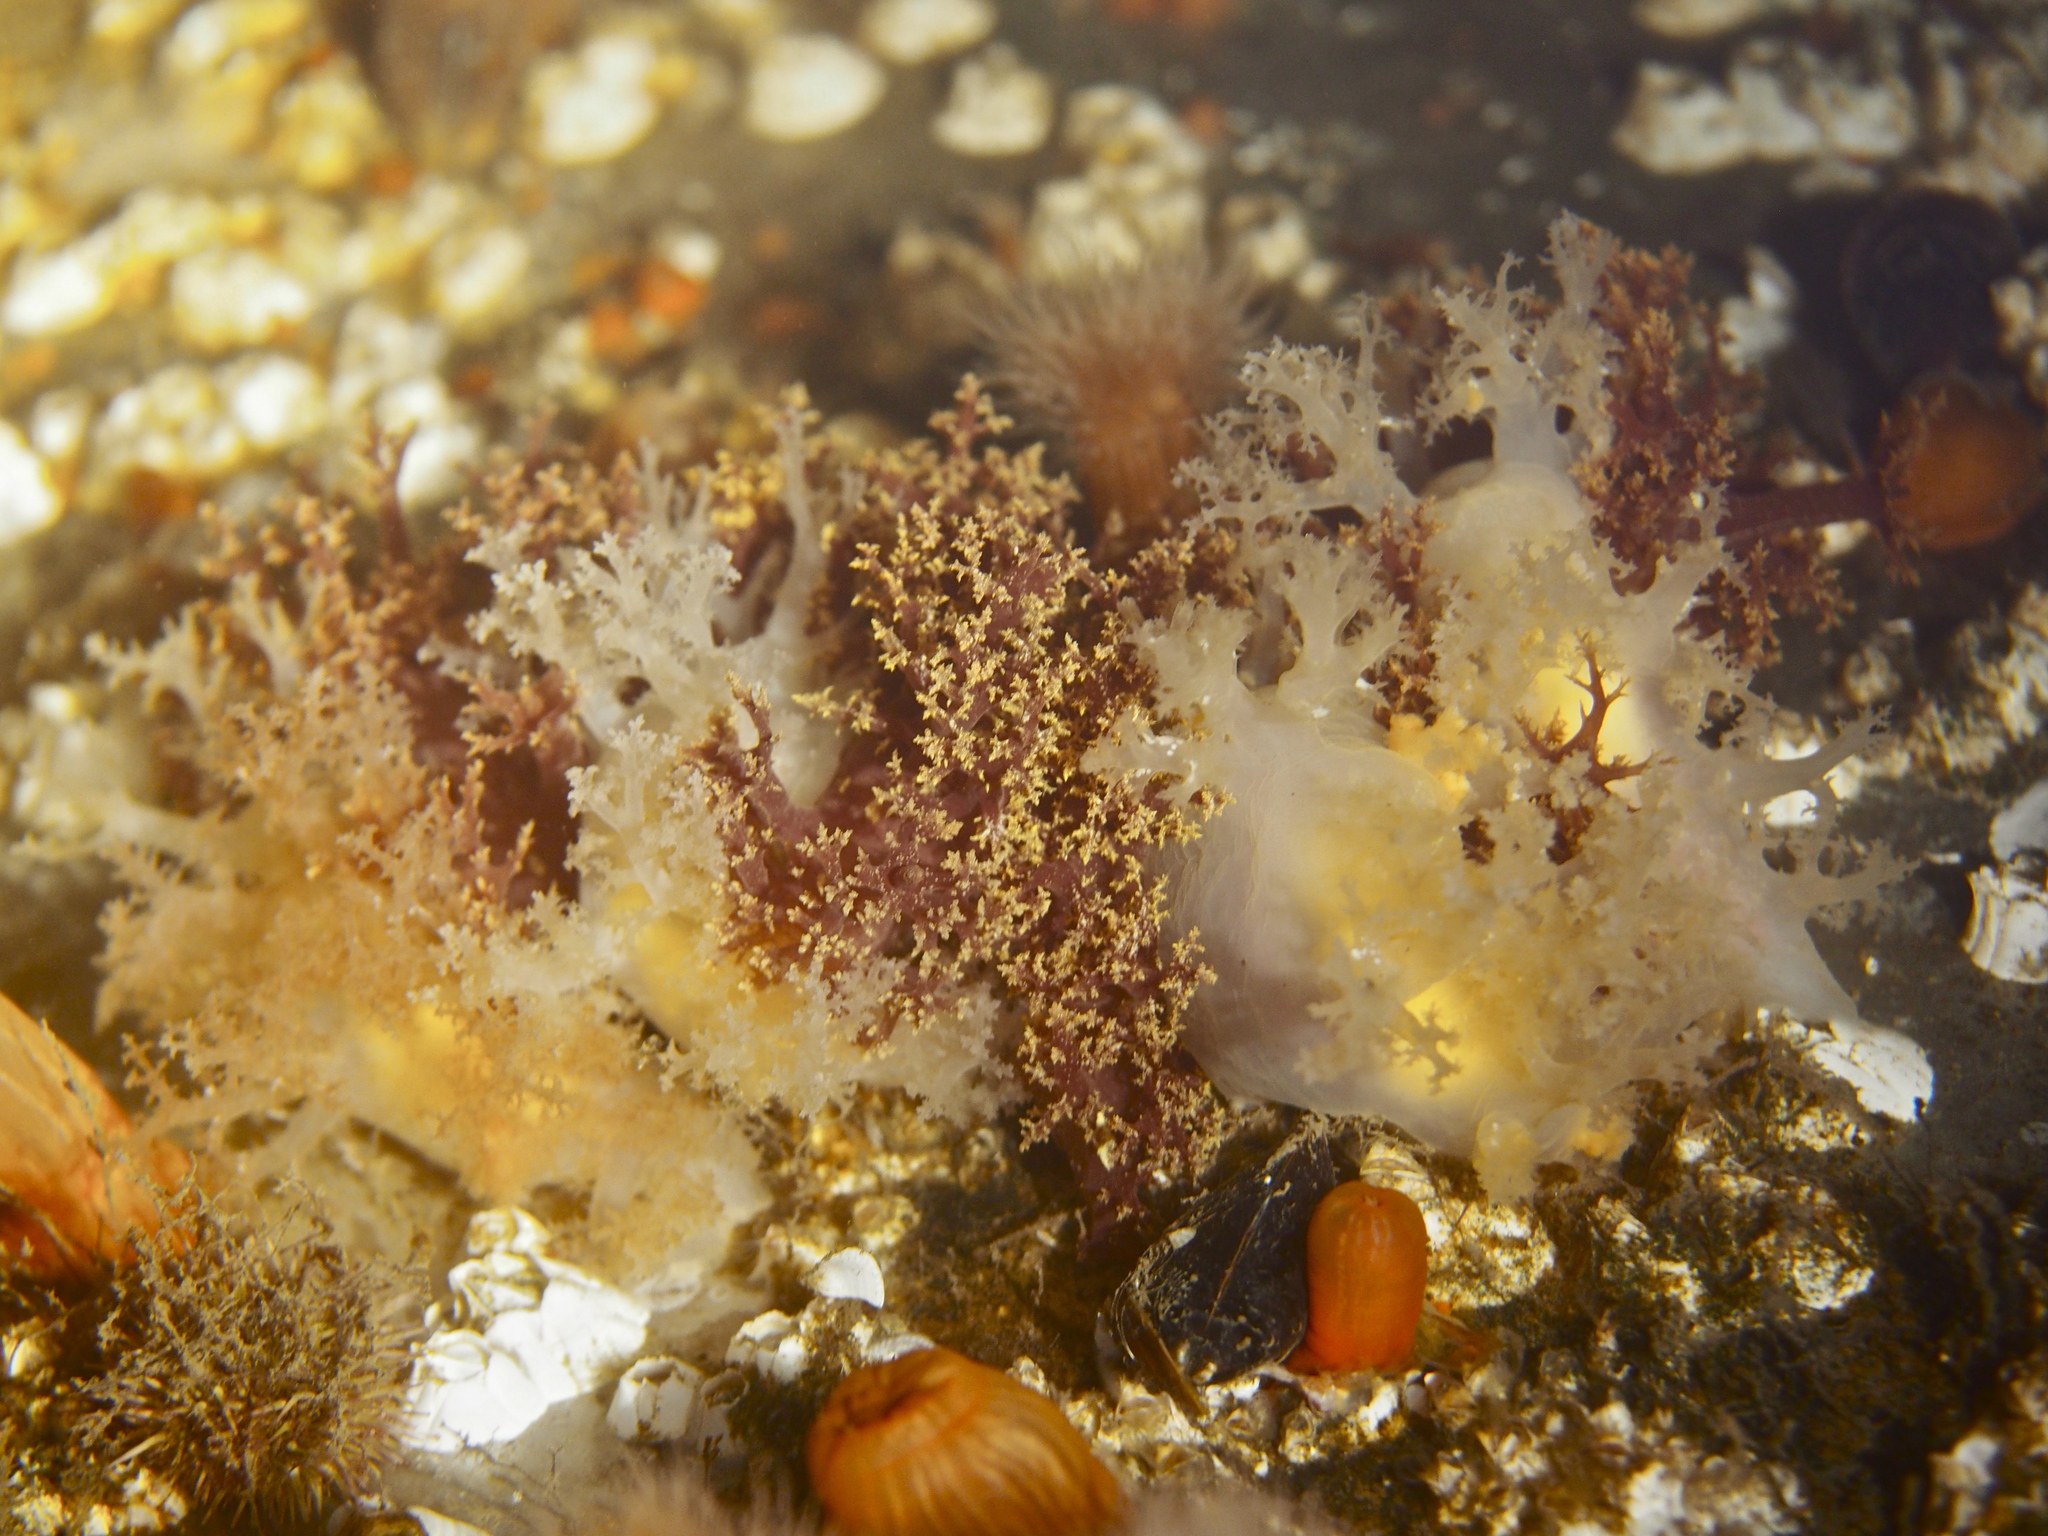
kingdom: Animalia
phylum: Mollusca
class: Gastropoda
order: Nudibranchia
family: Dendronotidae
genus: Dendronotus
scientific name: Dendronotus lacteus
